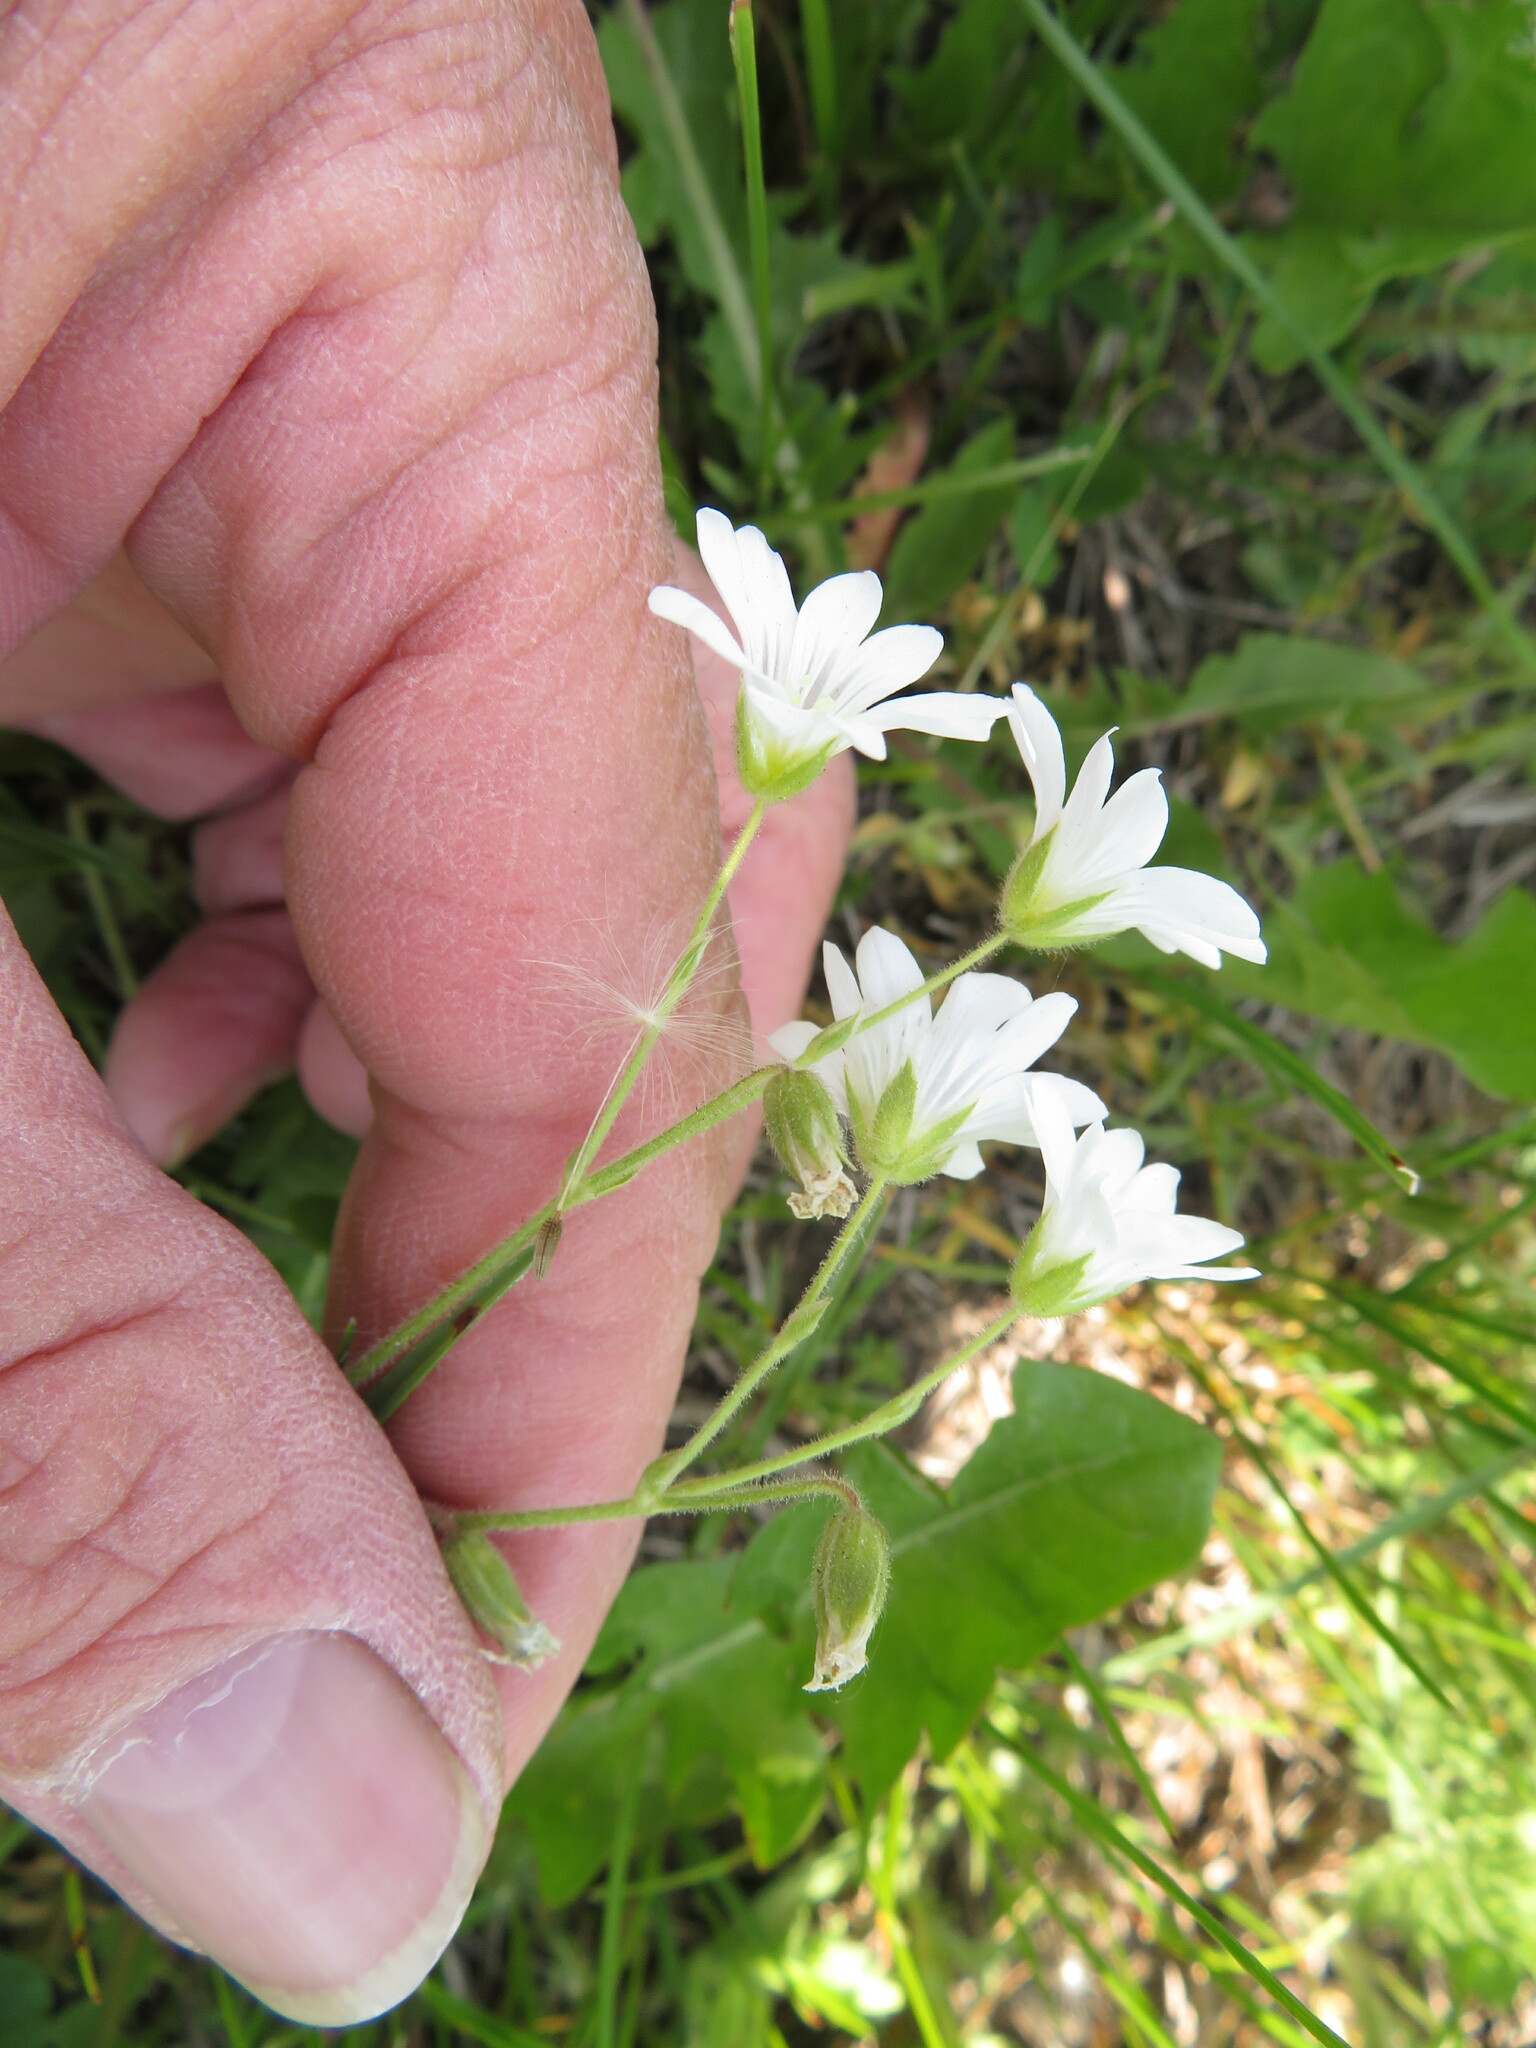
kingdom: Plantae
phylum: Tracheophyta
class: Magnoliopsida
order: Caryophyllales
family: Caryophyllaceae
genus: Cerastium
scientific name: Cerastium arvense
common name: Field mouse-ear
